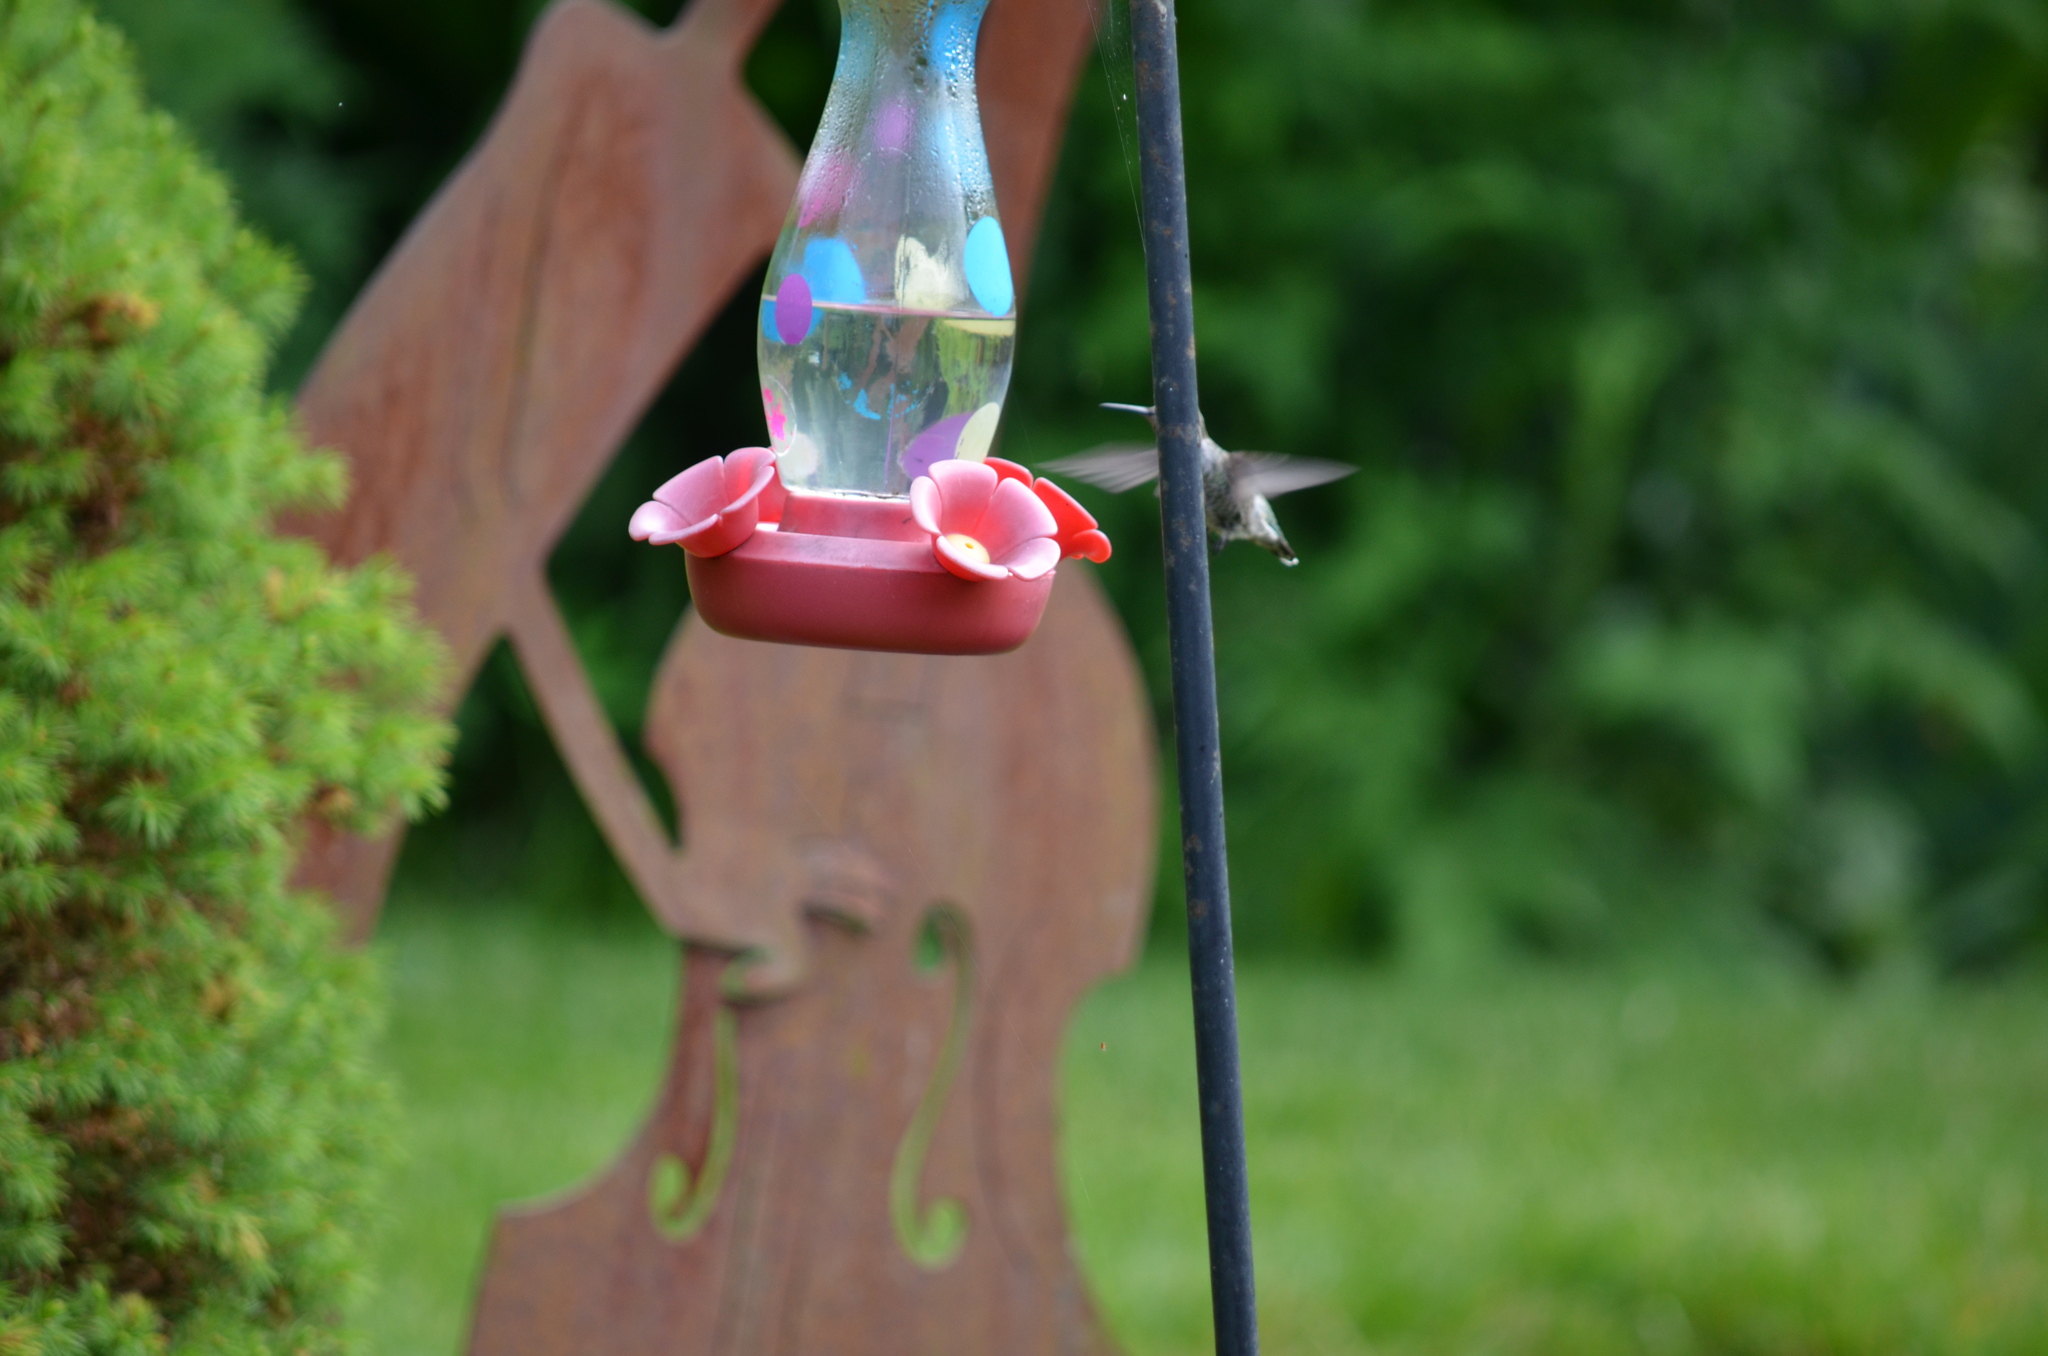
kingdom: Animalia
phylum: Chordata
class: Aves
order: Apodiformes
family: Trochilidae
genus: Calypte
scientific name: Calypte anna
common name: Anna's hummingbird
